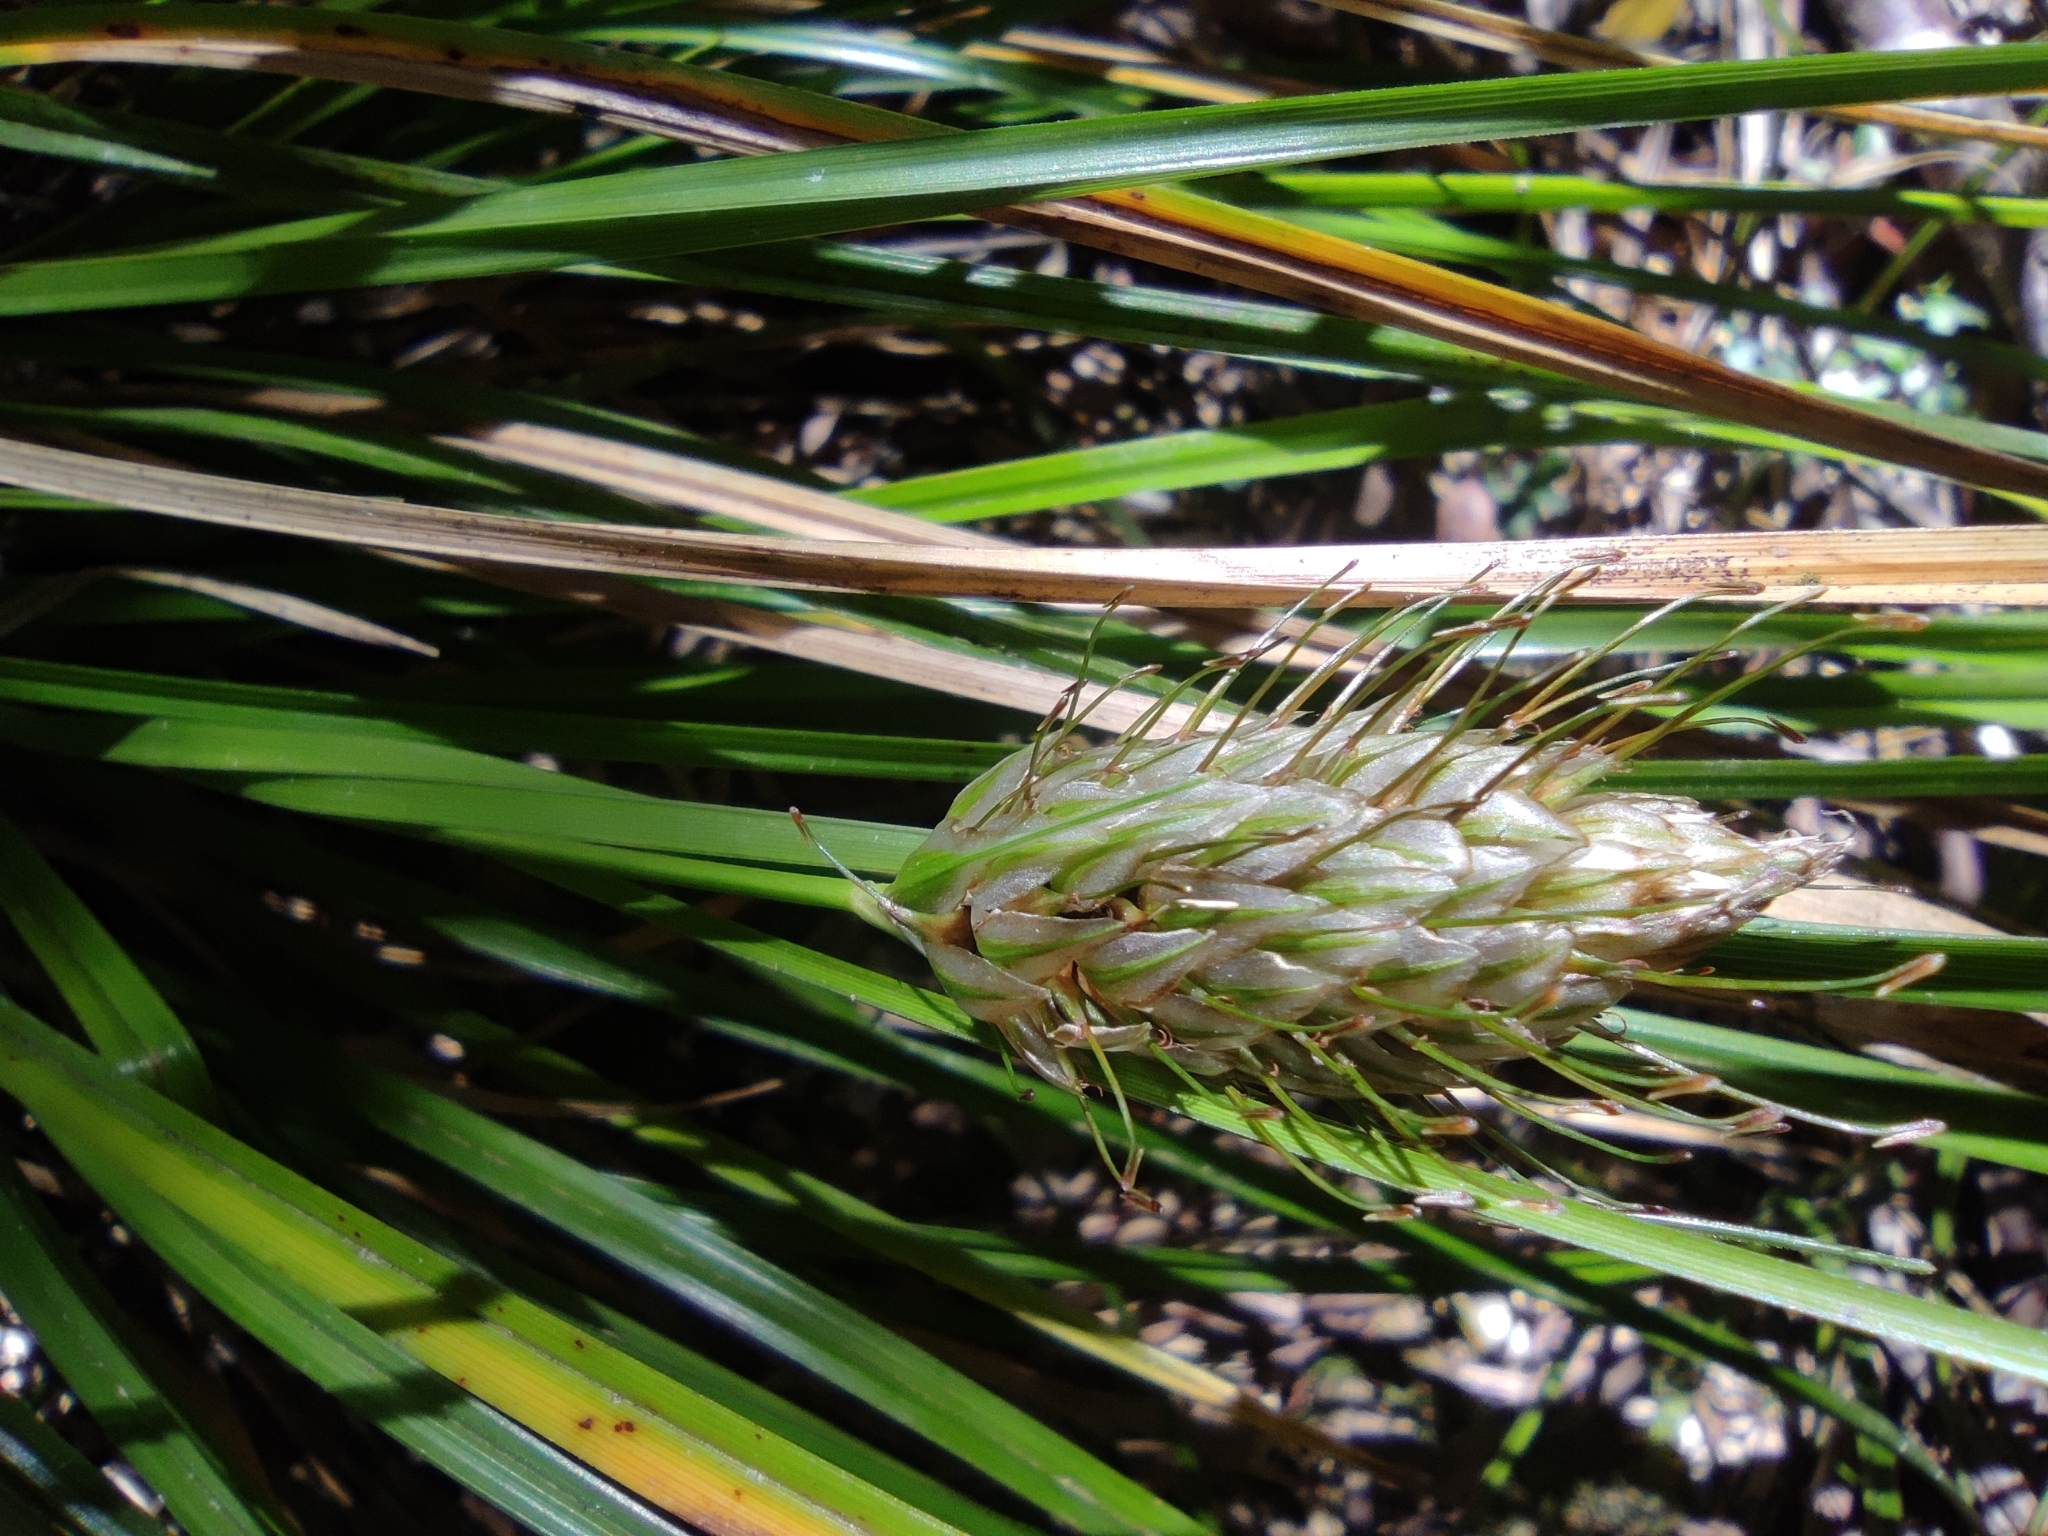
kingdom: Plantae
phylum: Tracheophyta
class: Liliopsida
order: Poales
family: Cyperaceae
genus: Carex
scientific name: Carex dolichophylla
